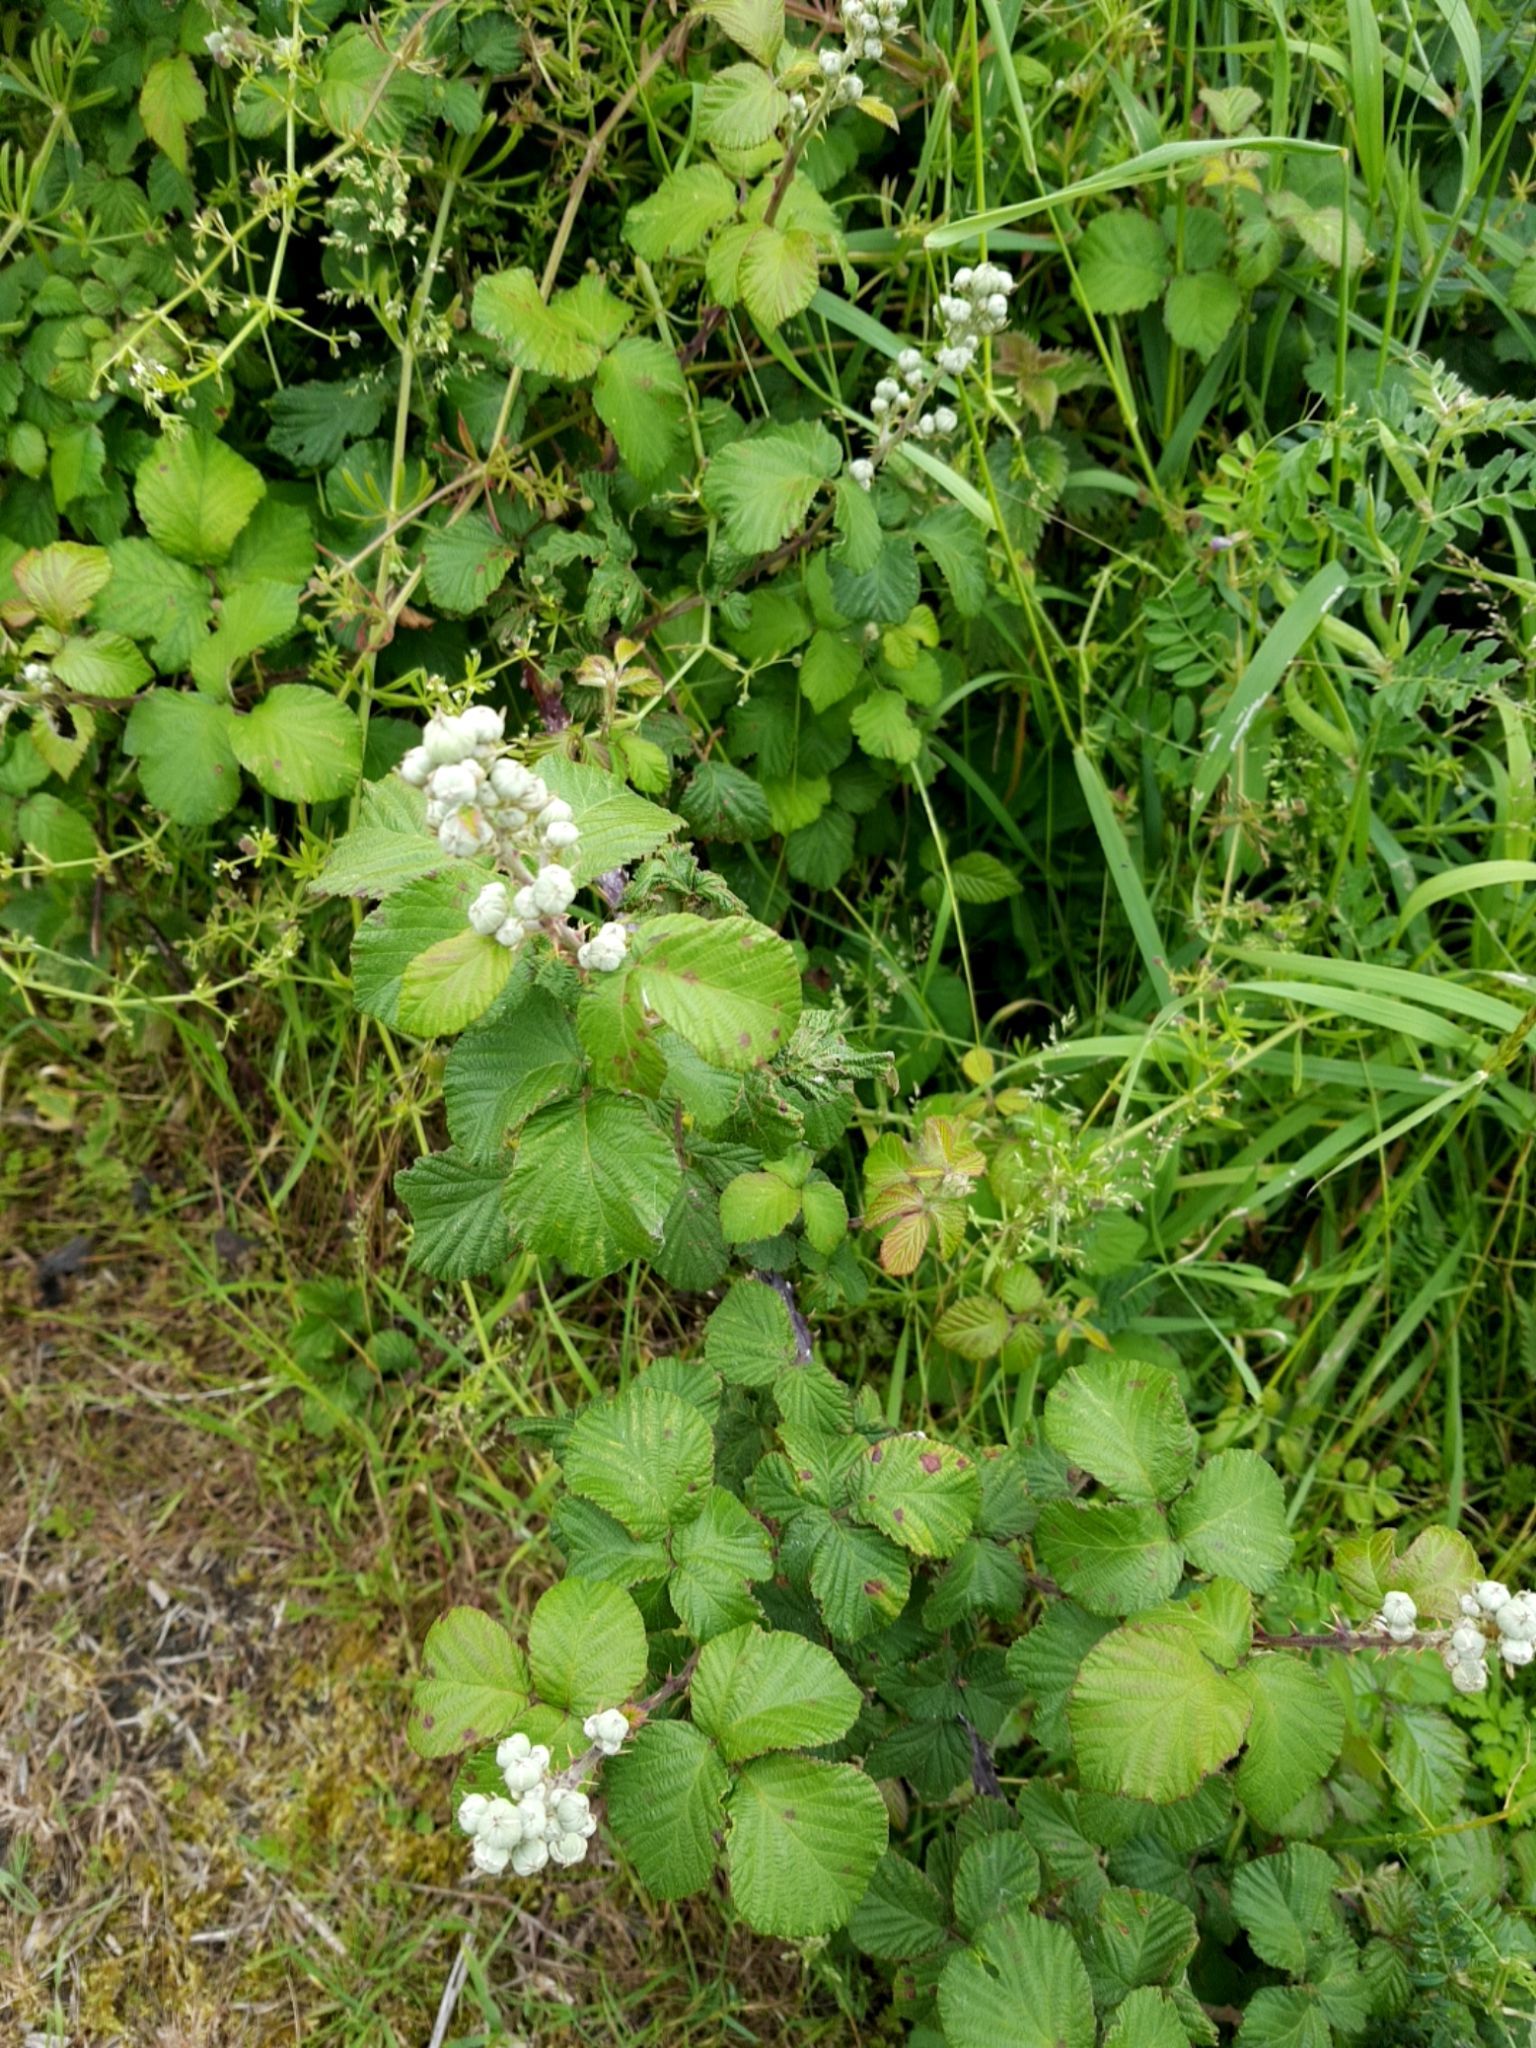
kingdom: Plantae
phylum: Tracheophyta
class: Magnoliopsida
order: Rosales
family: Rosaceae
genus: Rubus
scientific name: Rubus ulmifolius
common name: Elmleaf blackberry
